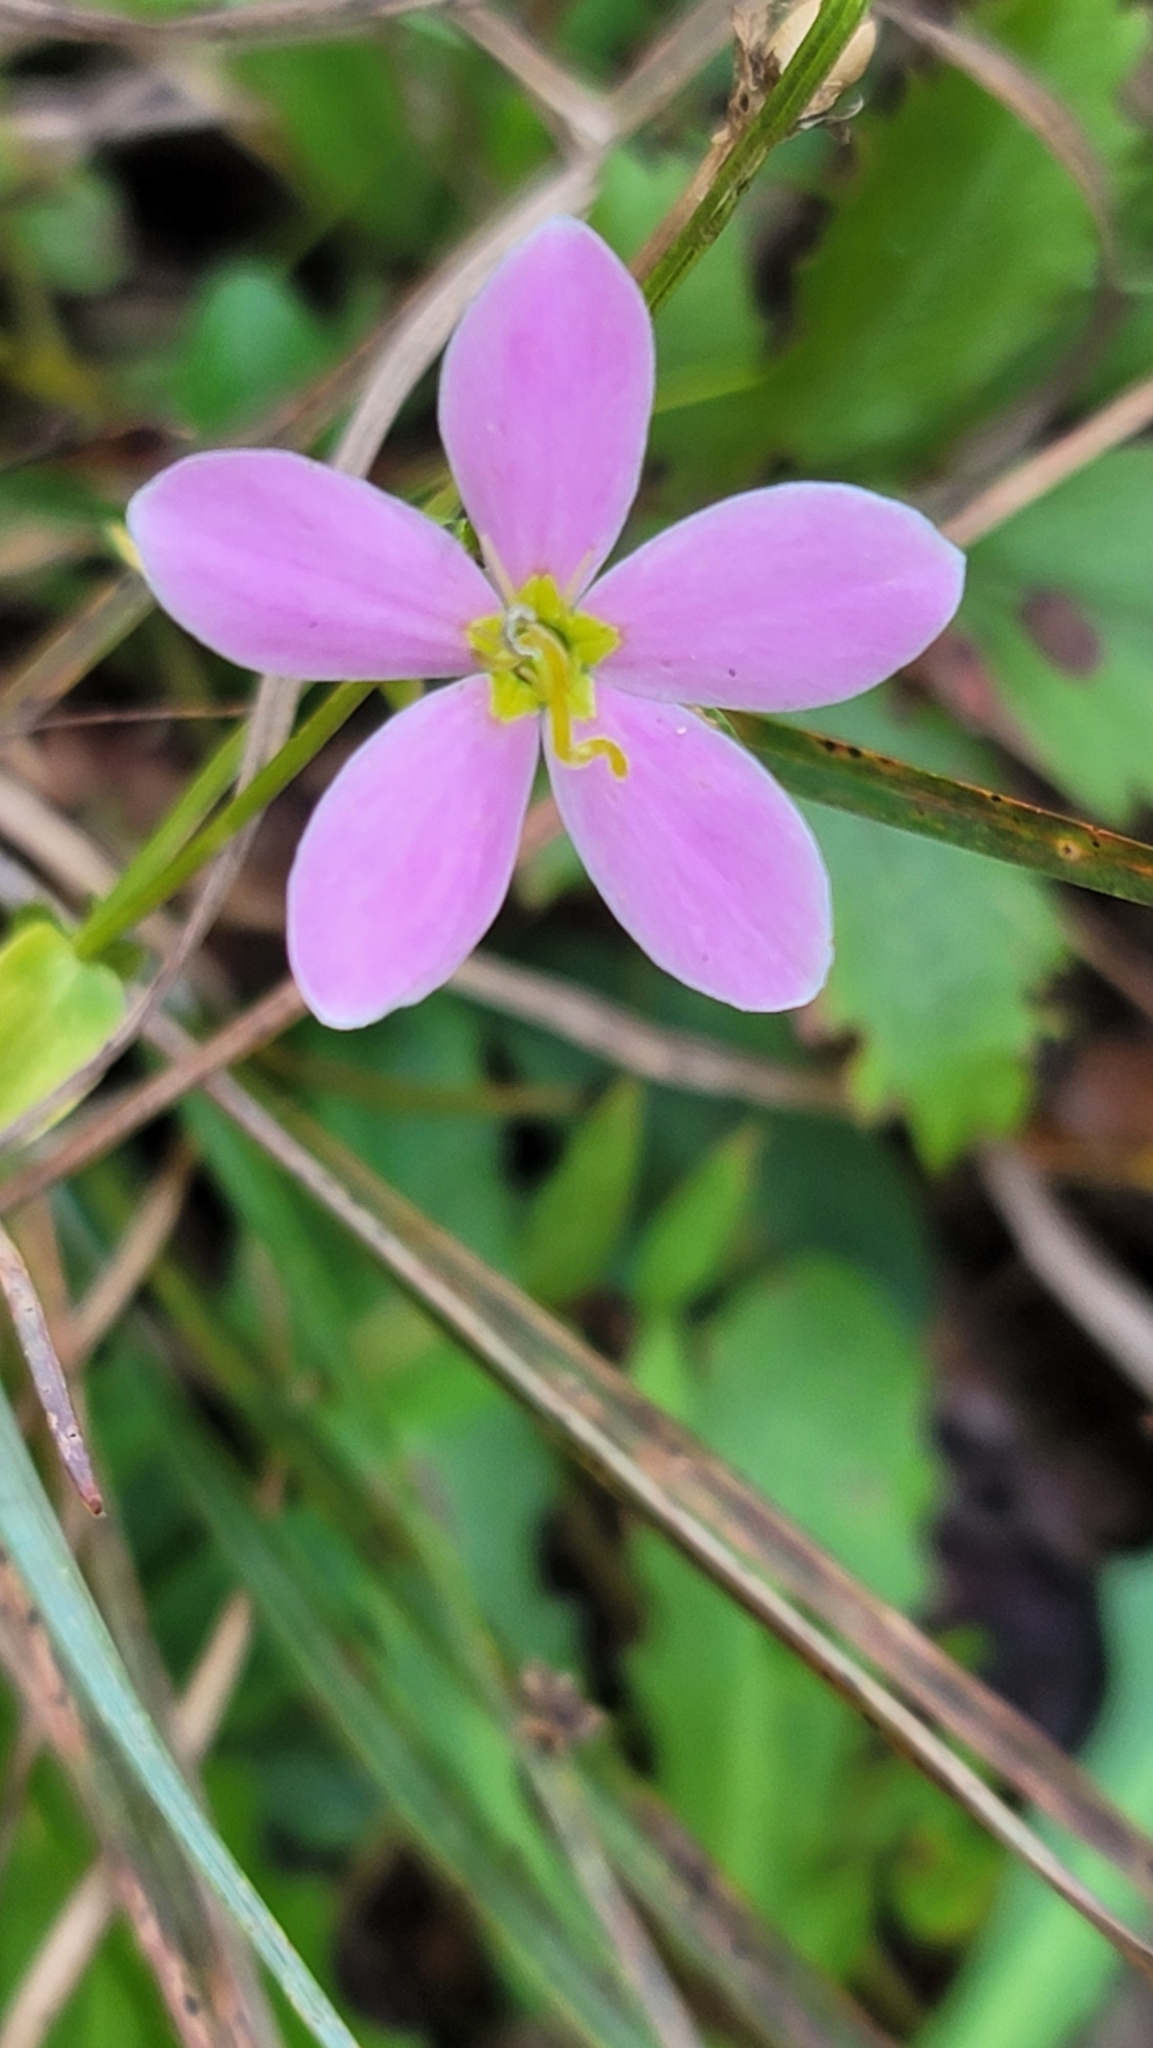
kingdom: Plantae
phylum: Tracheophyta
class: Magnoliopsida
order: Gentianales
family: Gentianaceae
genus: Sabatia
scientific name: Sabatia angularis
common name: Rose-pink
